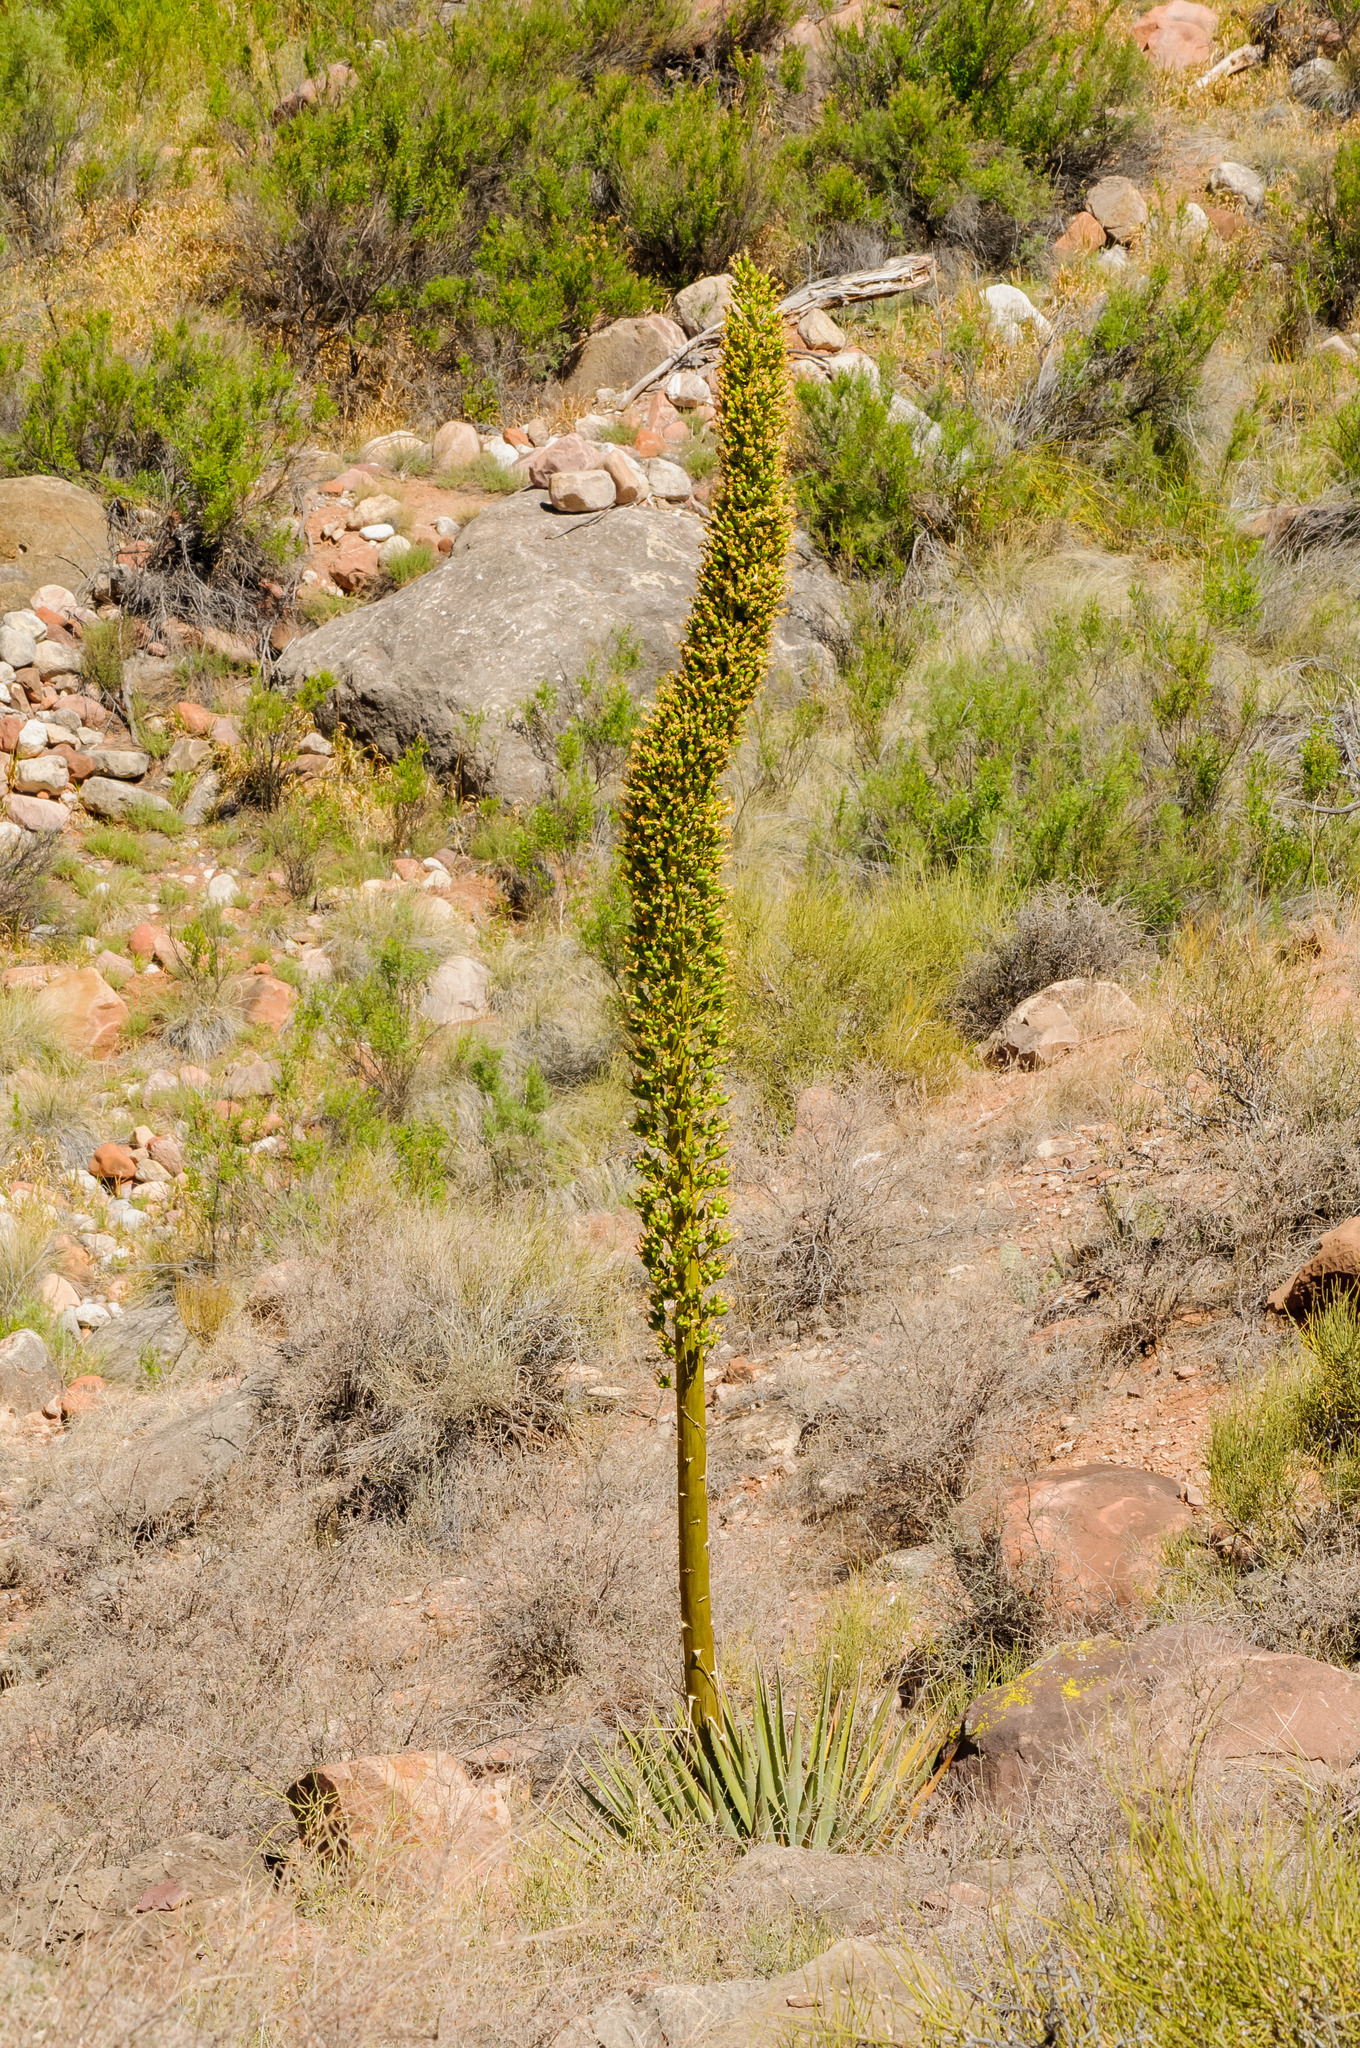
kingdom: Plantae
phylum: Tracheophyta
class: Liliopsida
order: Asparagales
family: Asparagaceae
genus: Agave
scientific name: Agave utahensis
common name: Utah agave
